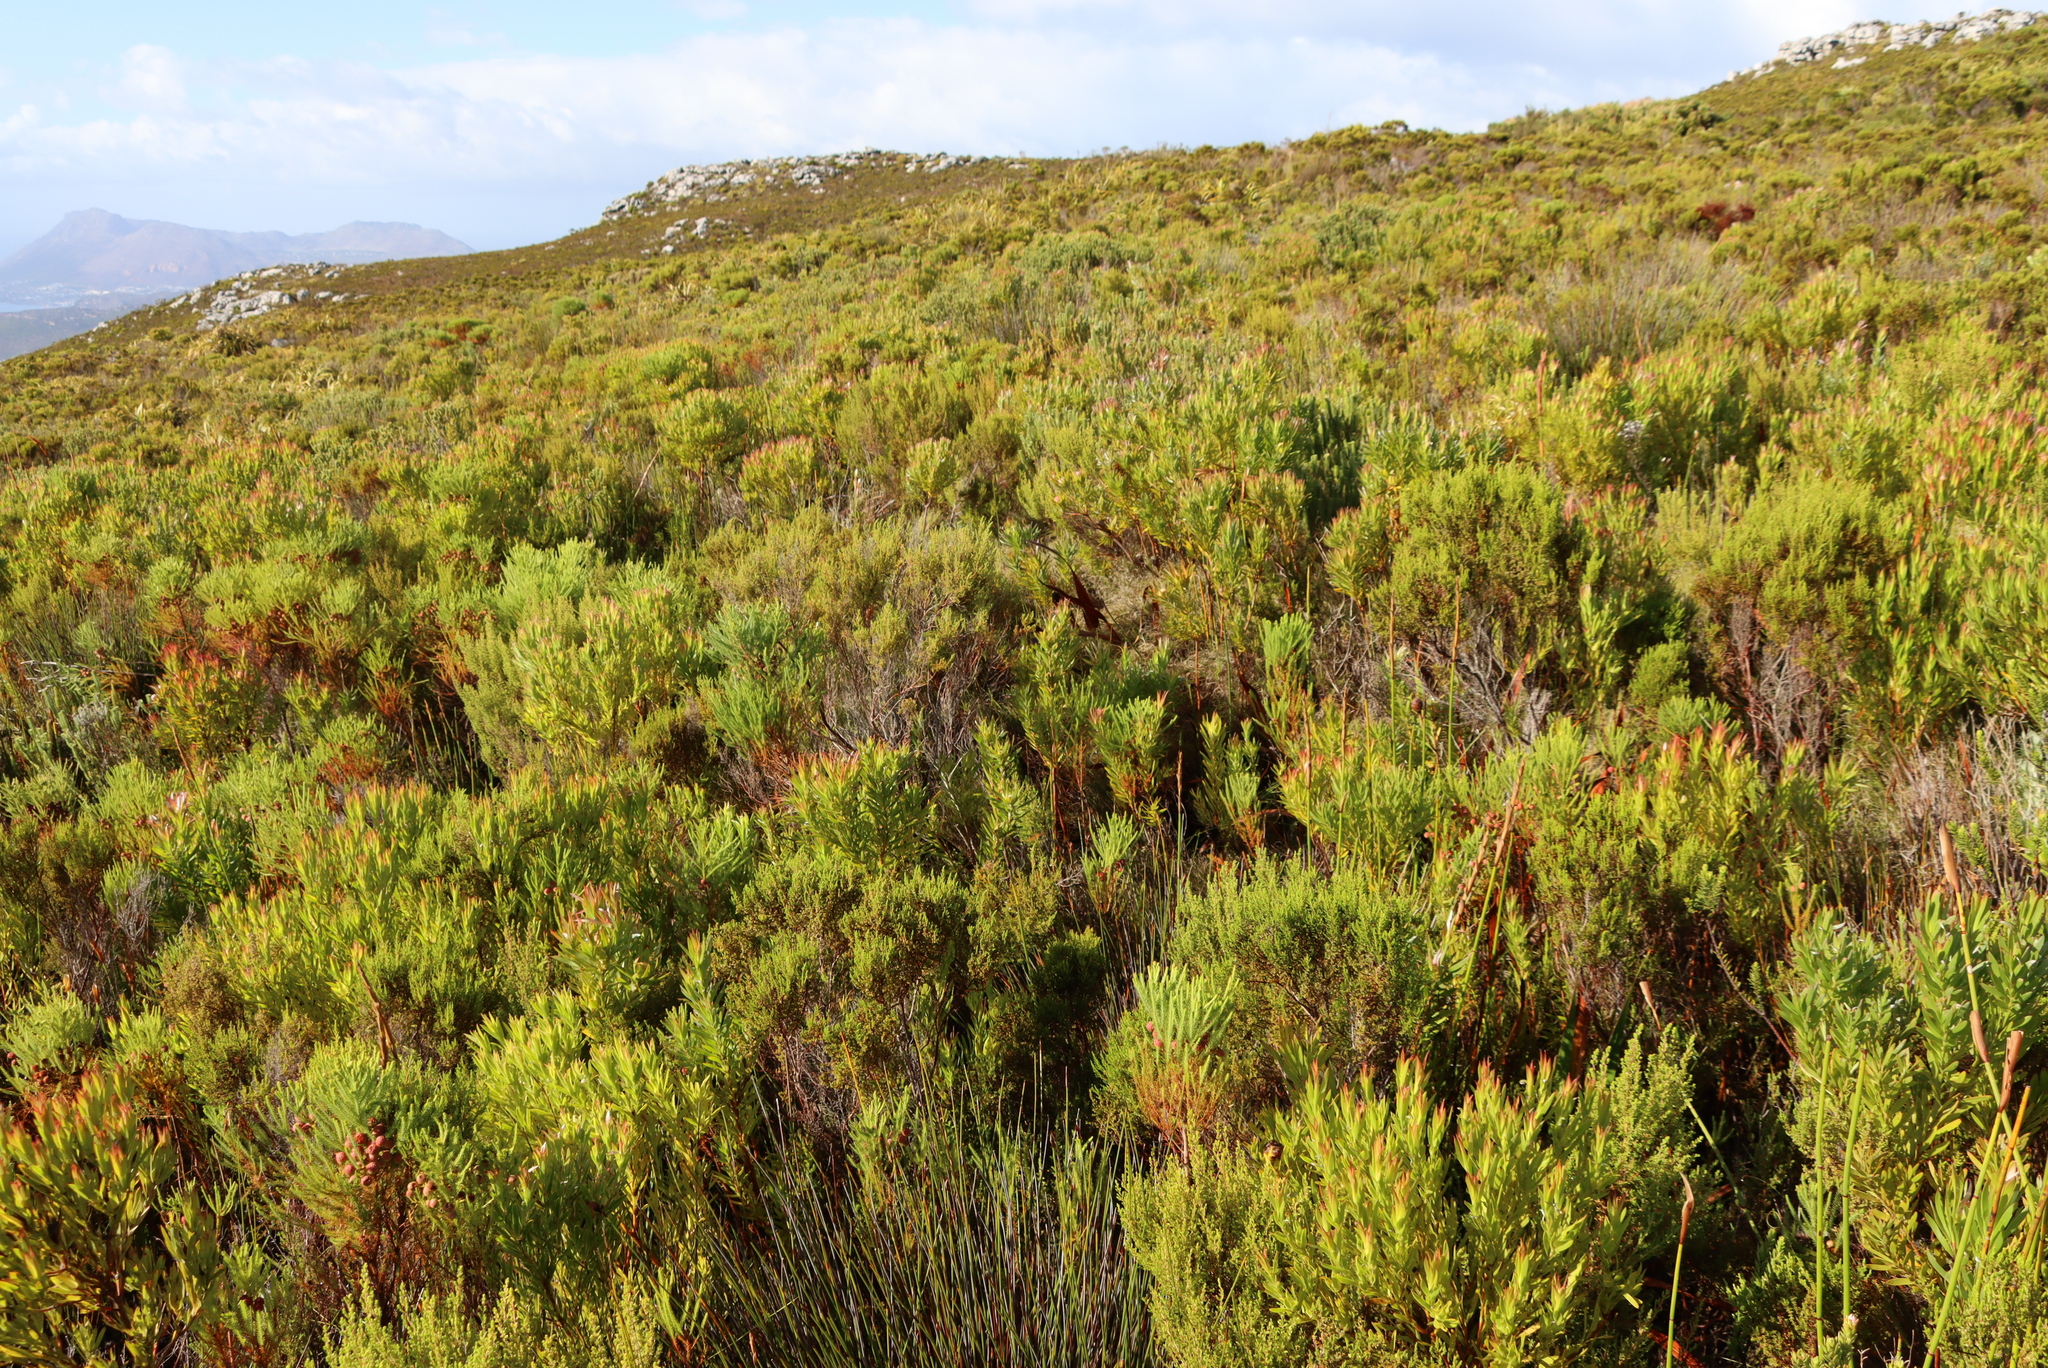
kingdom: Plantae
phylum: Tracheophyta
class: Magnoliopsida
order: Proteales
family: Proteaceae
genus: Leucadendron
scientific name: Leucadendron xanthoconus
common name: Sickle-leaf conebush
